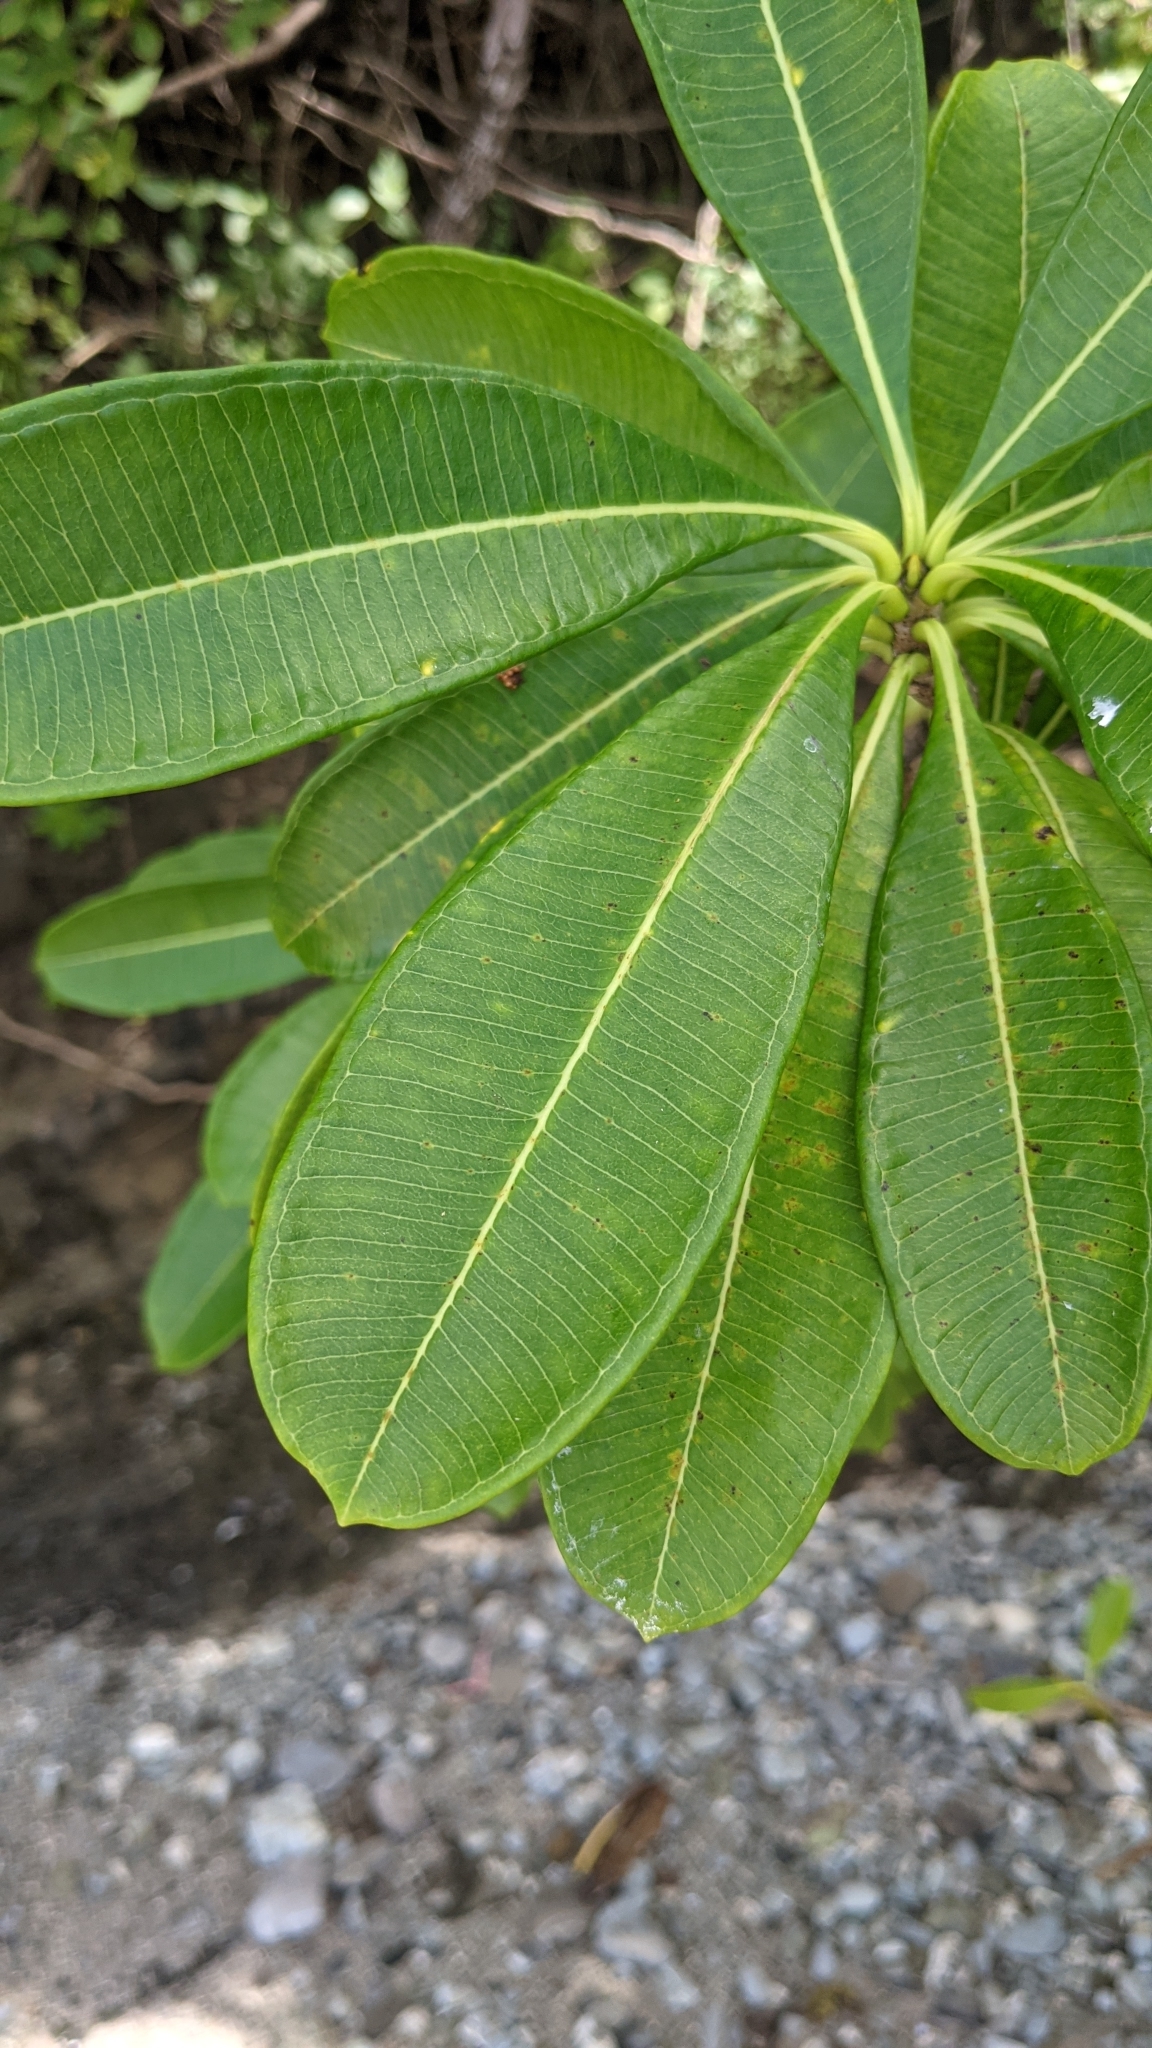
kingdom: Plantae
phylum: Tracheophyta
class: Magnoliopsida
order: Gentianales
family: Apocynaceae
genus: Cascabela
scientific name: Cascabela ovata
